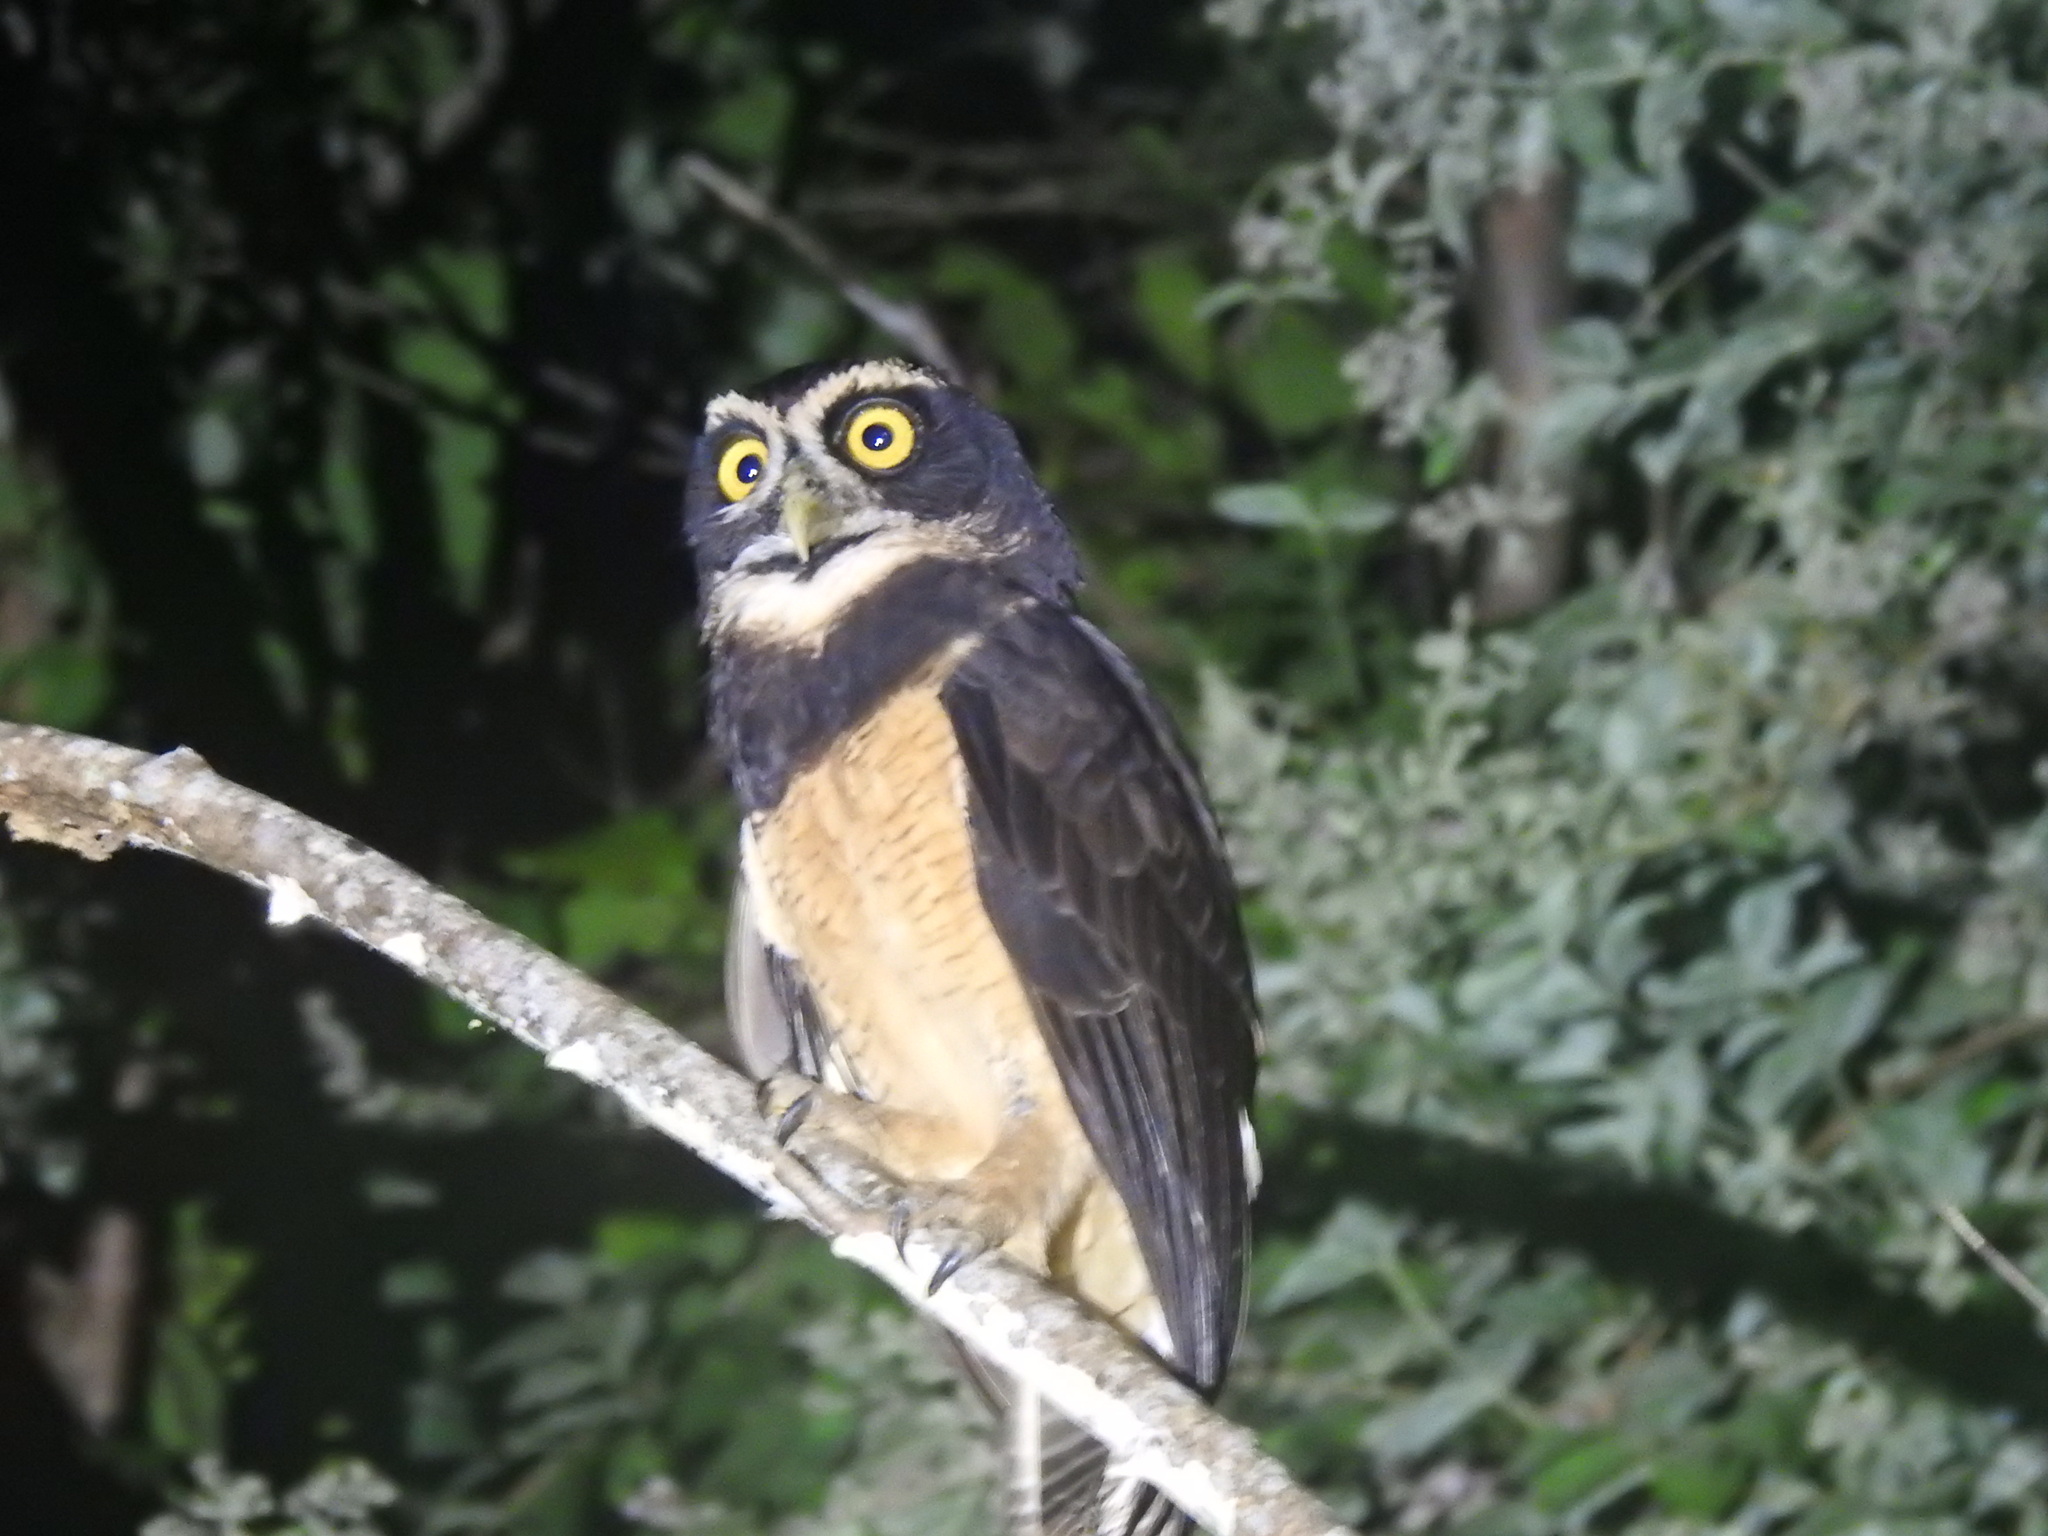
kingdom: Animalia
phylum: Chordata
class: Aves
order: Strigiformes
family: Strigidae
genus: Pulsatrix
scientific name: Pulsatrix perspicillata
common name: Spectacled owl
